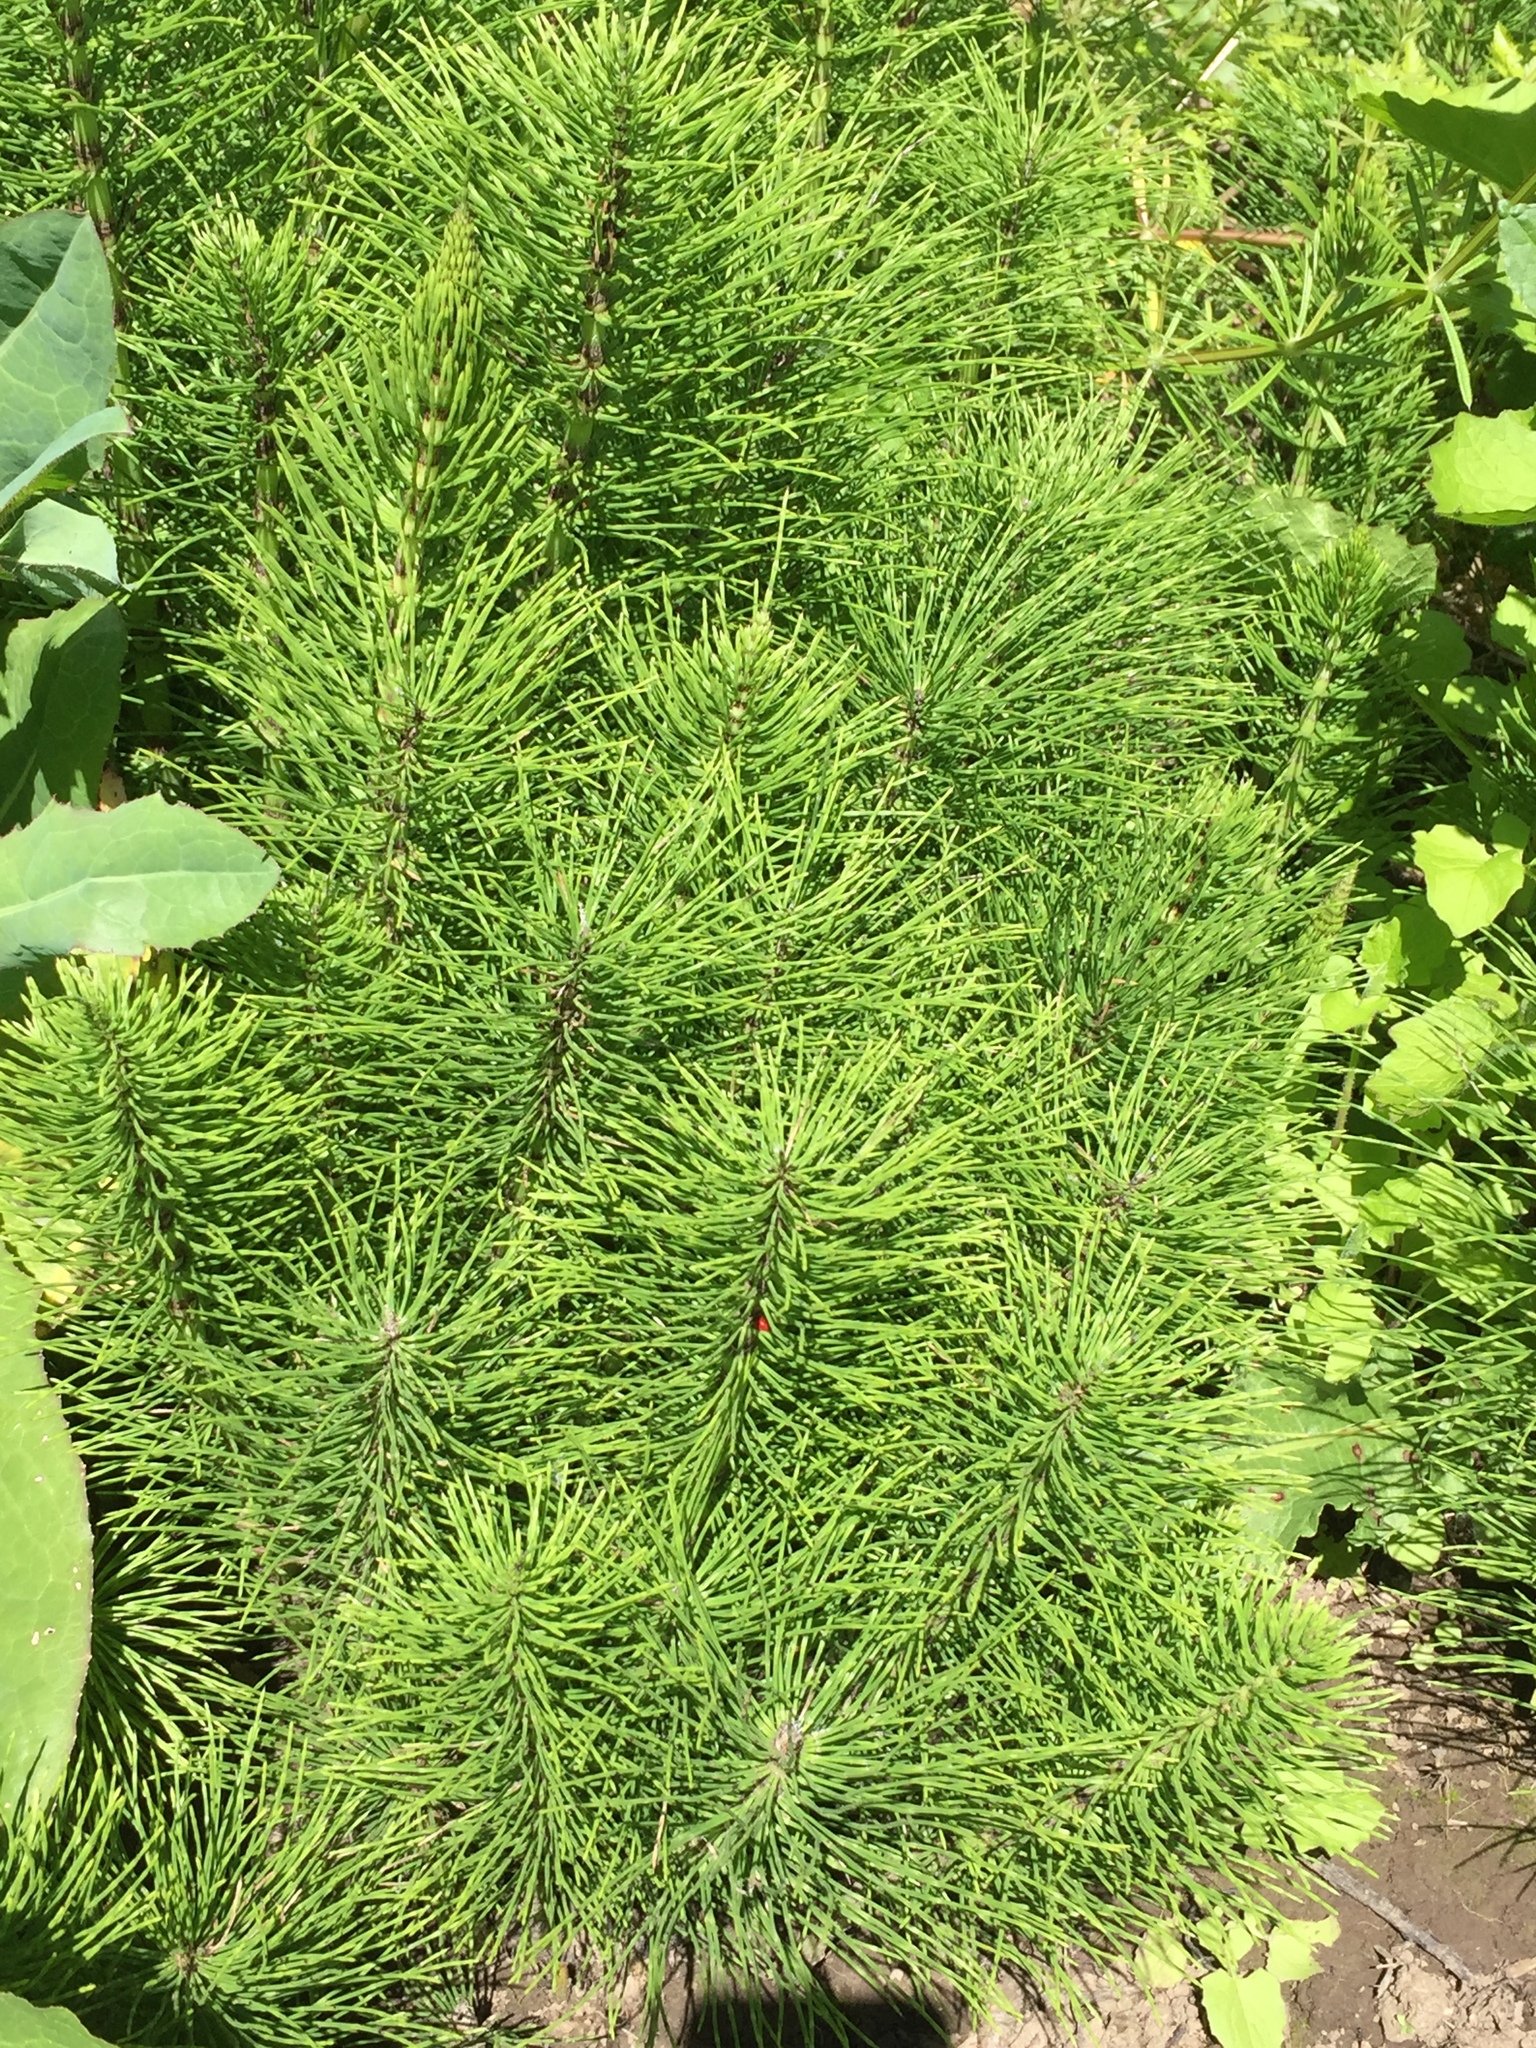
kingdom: Plantae
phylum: Tracheophyta
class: Polypodiopsida
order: Equisetales
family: Equisetaceae
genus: Equisetum
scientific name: Equisetum braunii
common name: Braun's horsetail
